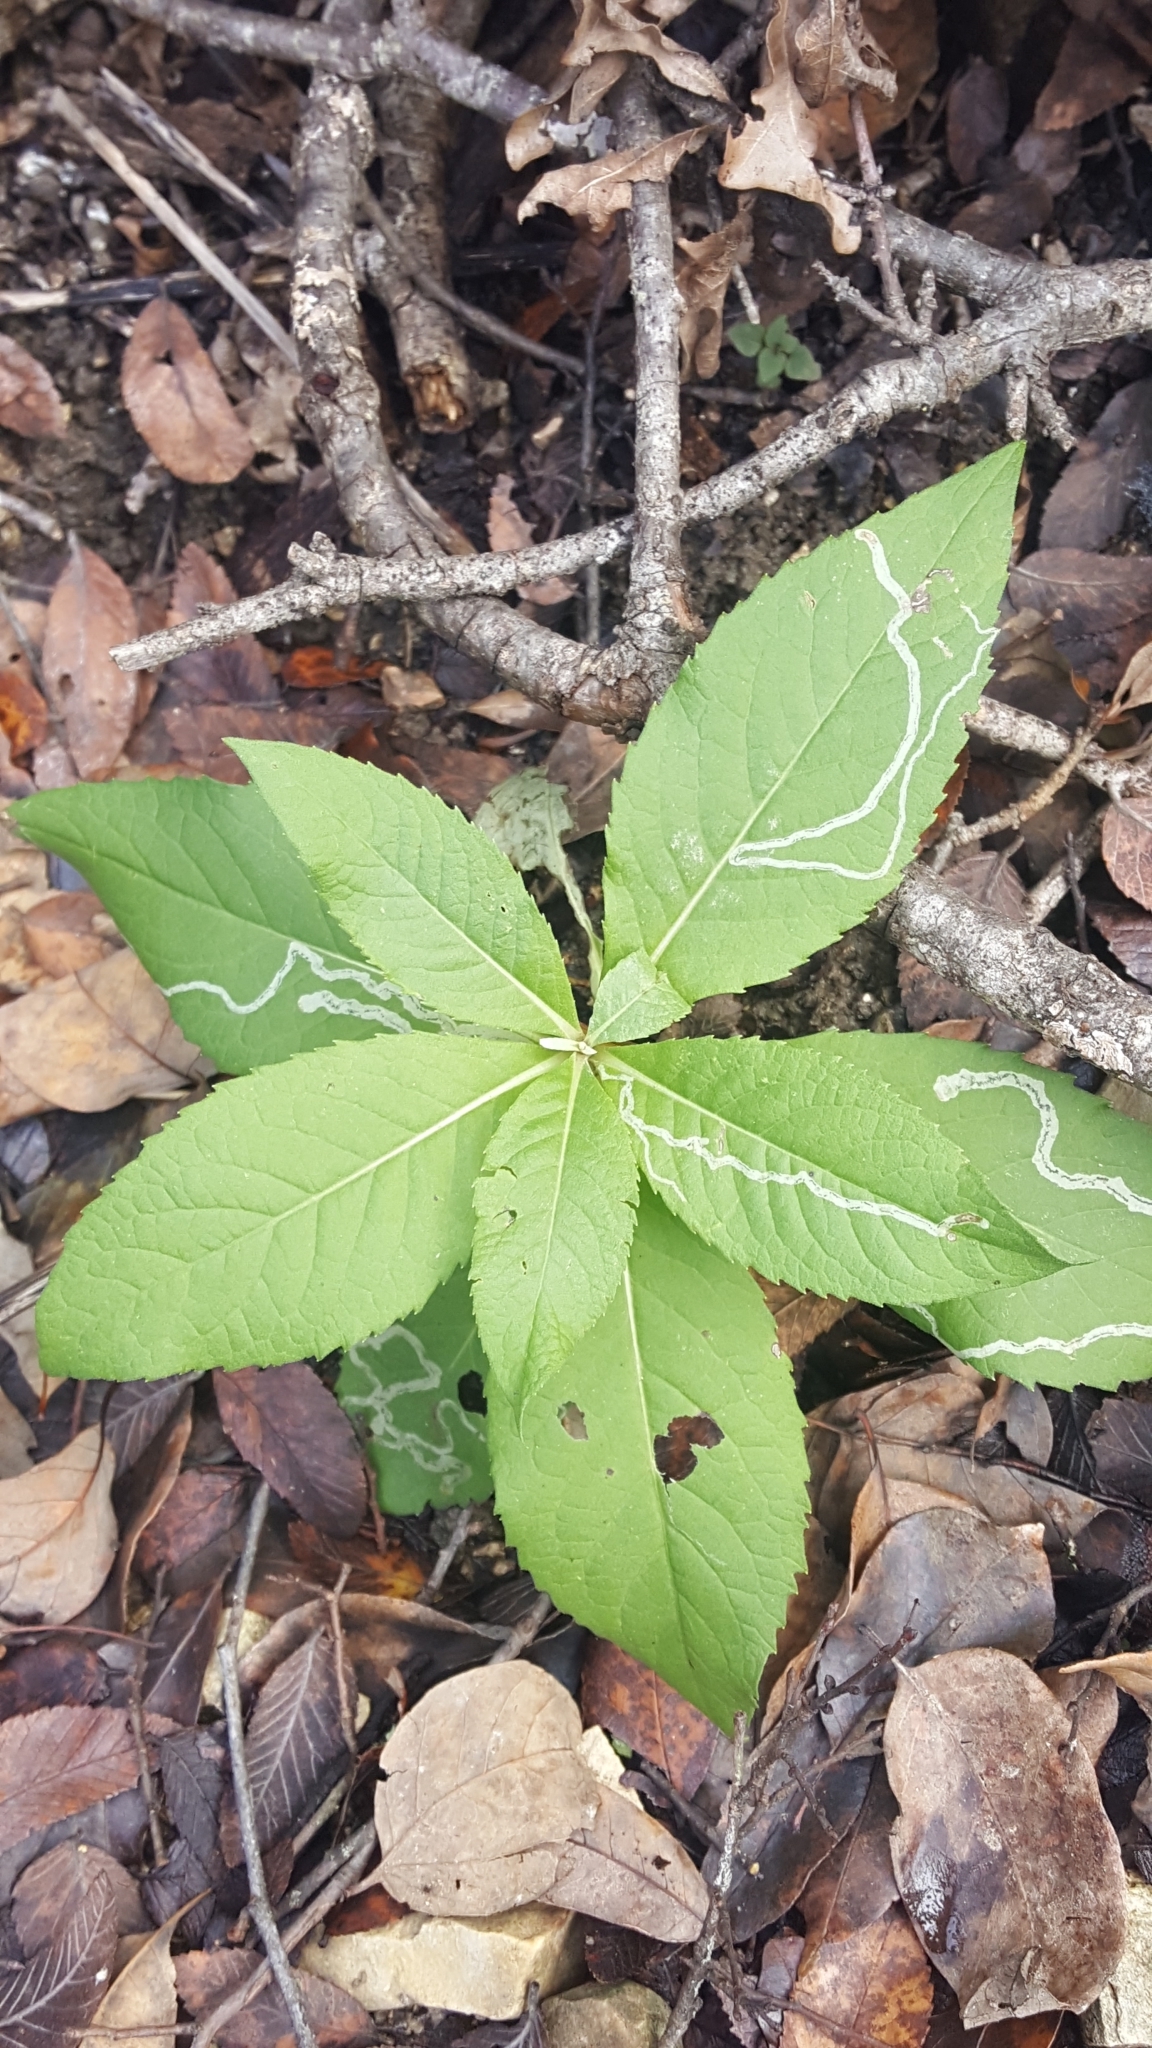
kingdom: Plantae
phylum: Tracheophyta
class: Magnoliopsida
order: Asterales
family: Asteraceae
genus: Verbesina
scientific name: Verbesina virginica
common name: Frostweed
